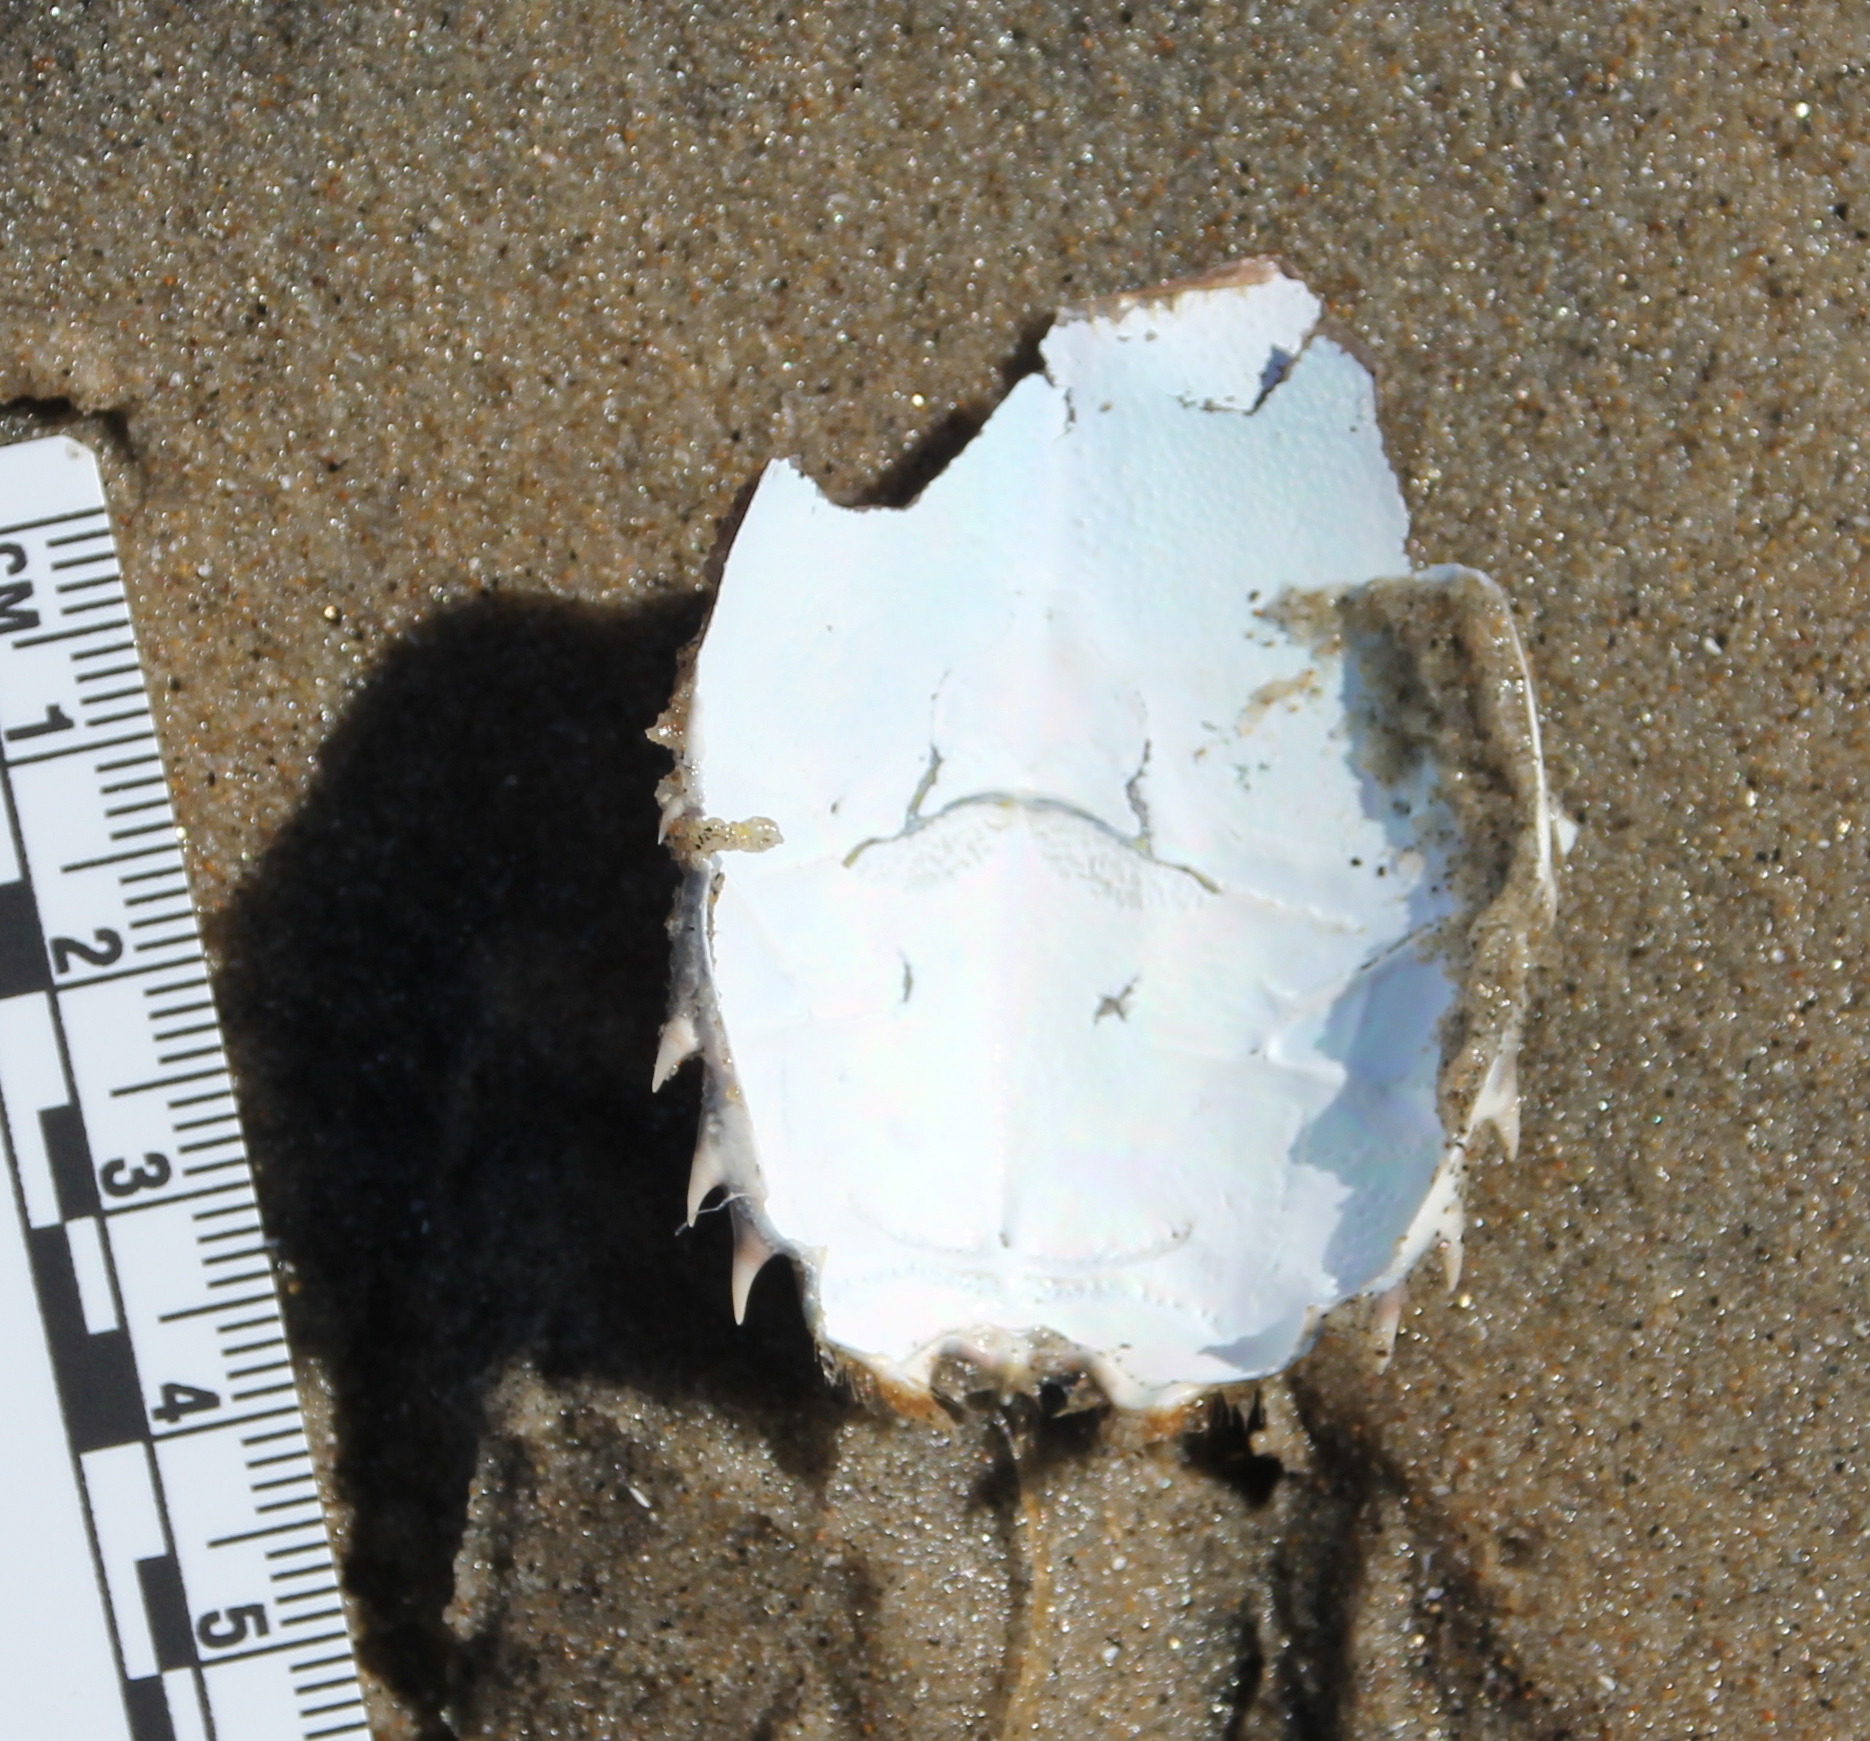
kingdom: Animalia
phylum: Arthropoda
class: Malacostraca
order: Decapoda
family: Blepharipodidae
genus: Blepharipoda
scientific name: Blepharipoda occidentalis
